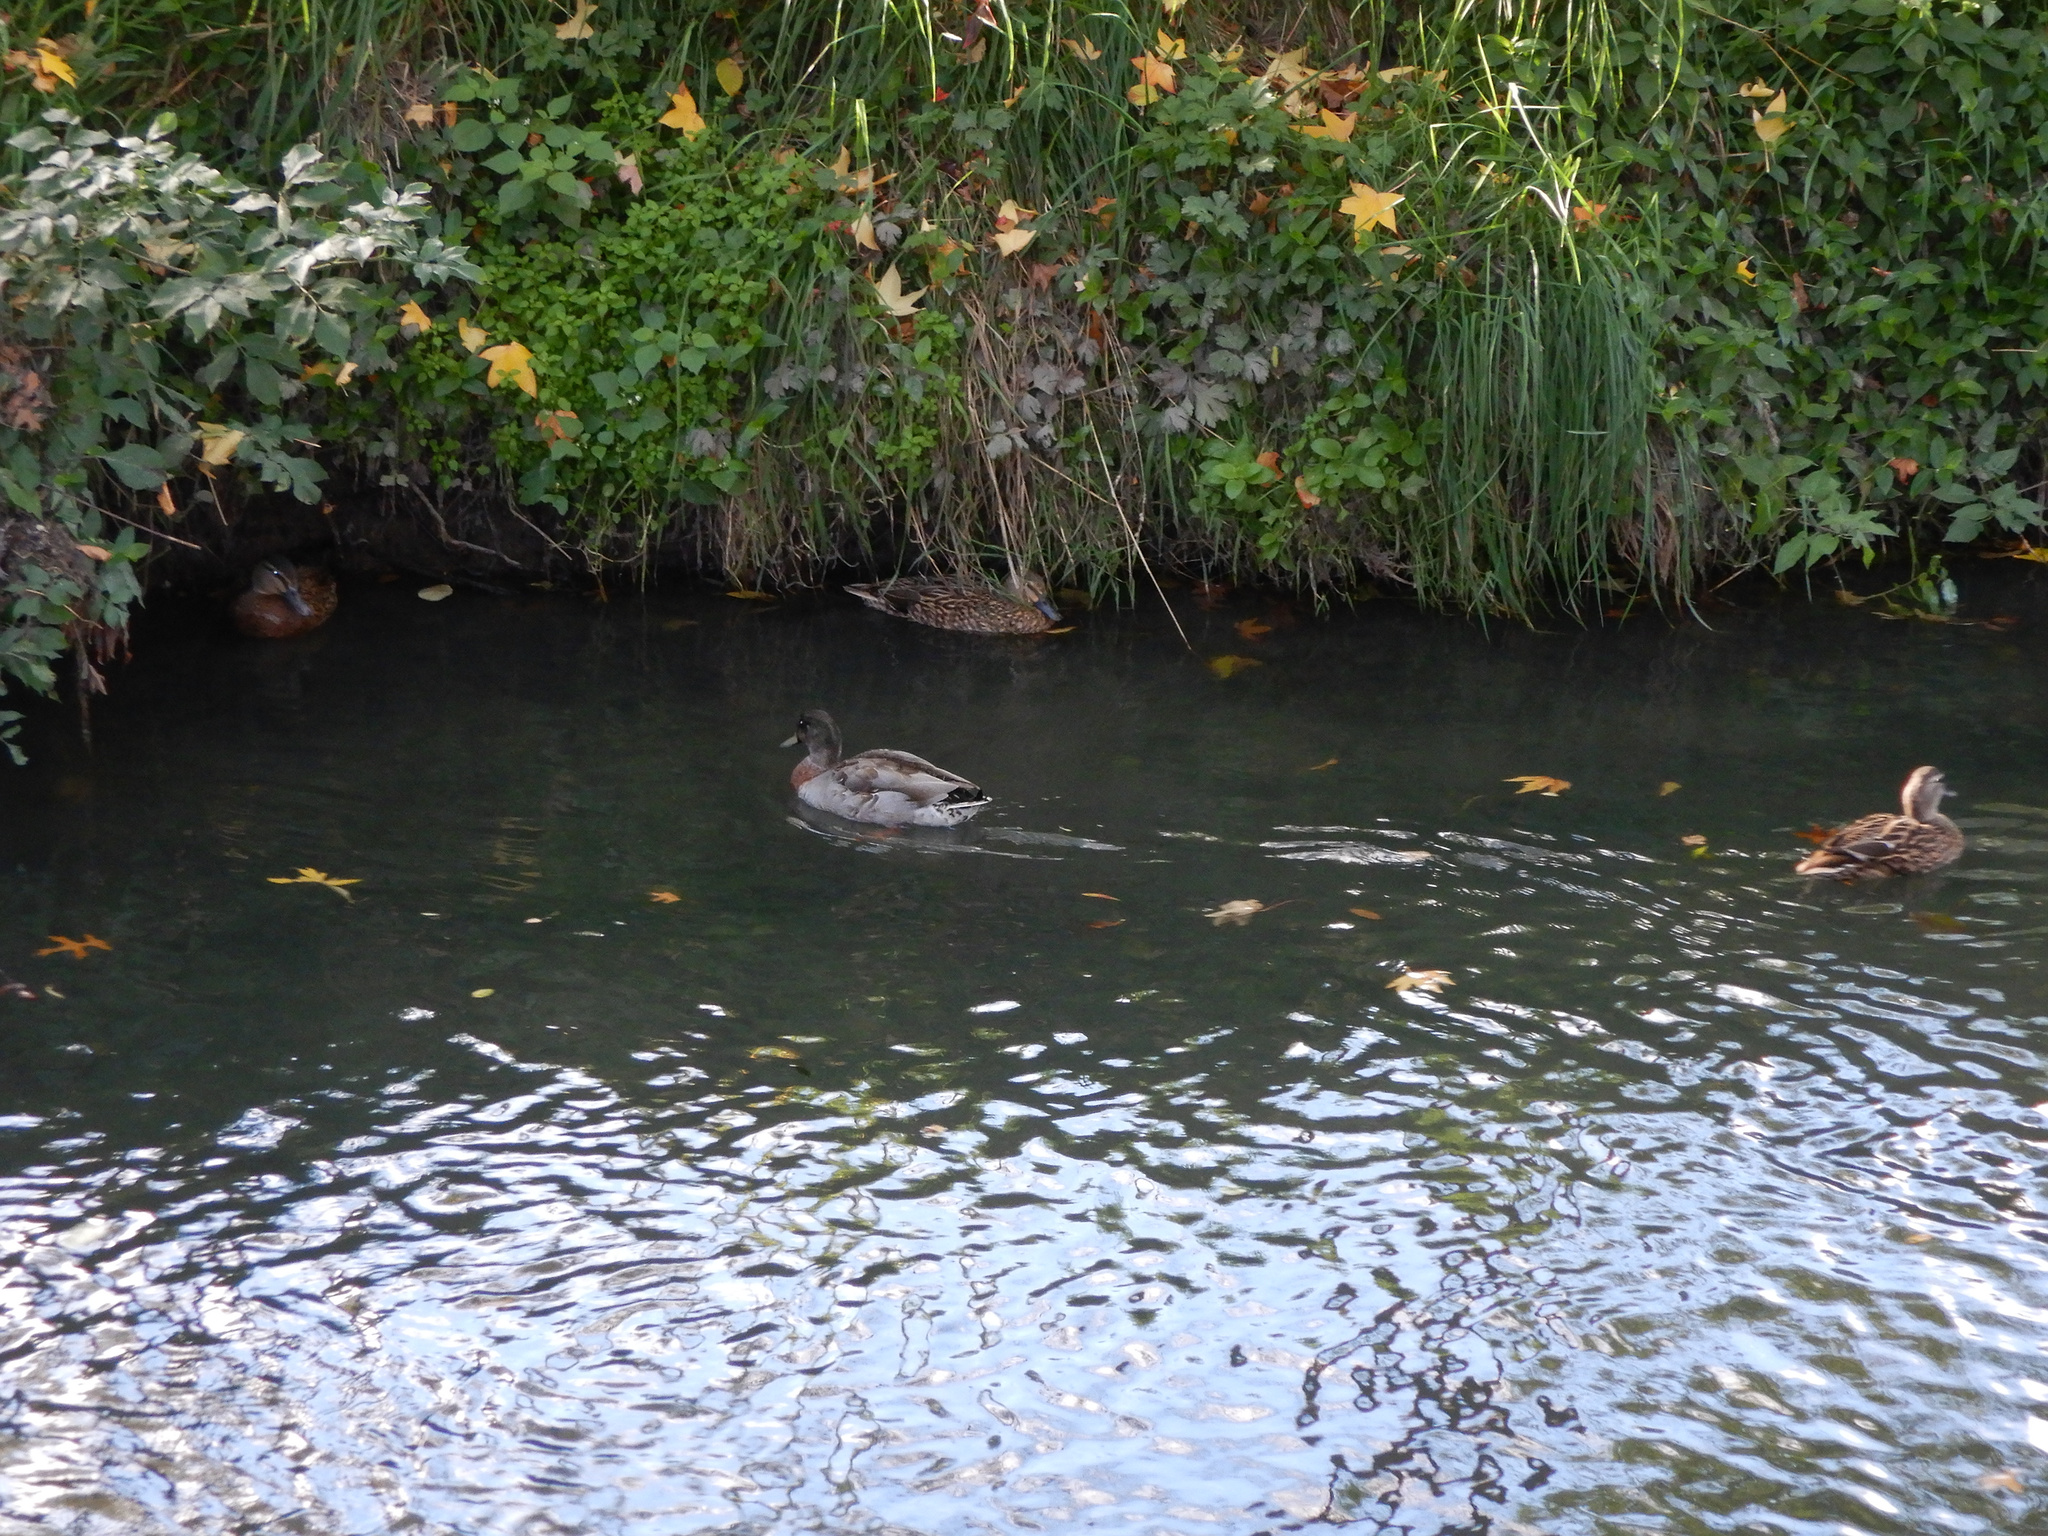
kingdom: Animalia
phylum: Chordata
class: Aves
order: Anseriformes
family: Anatidae
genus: Anas
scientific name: Anas platyrhynchos
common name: Mallard
